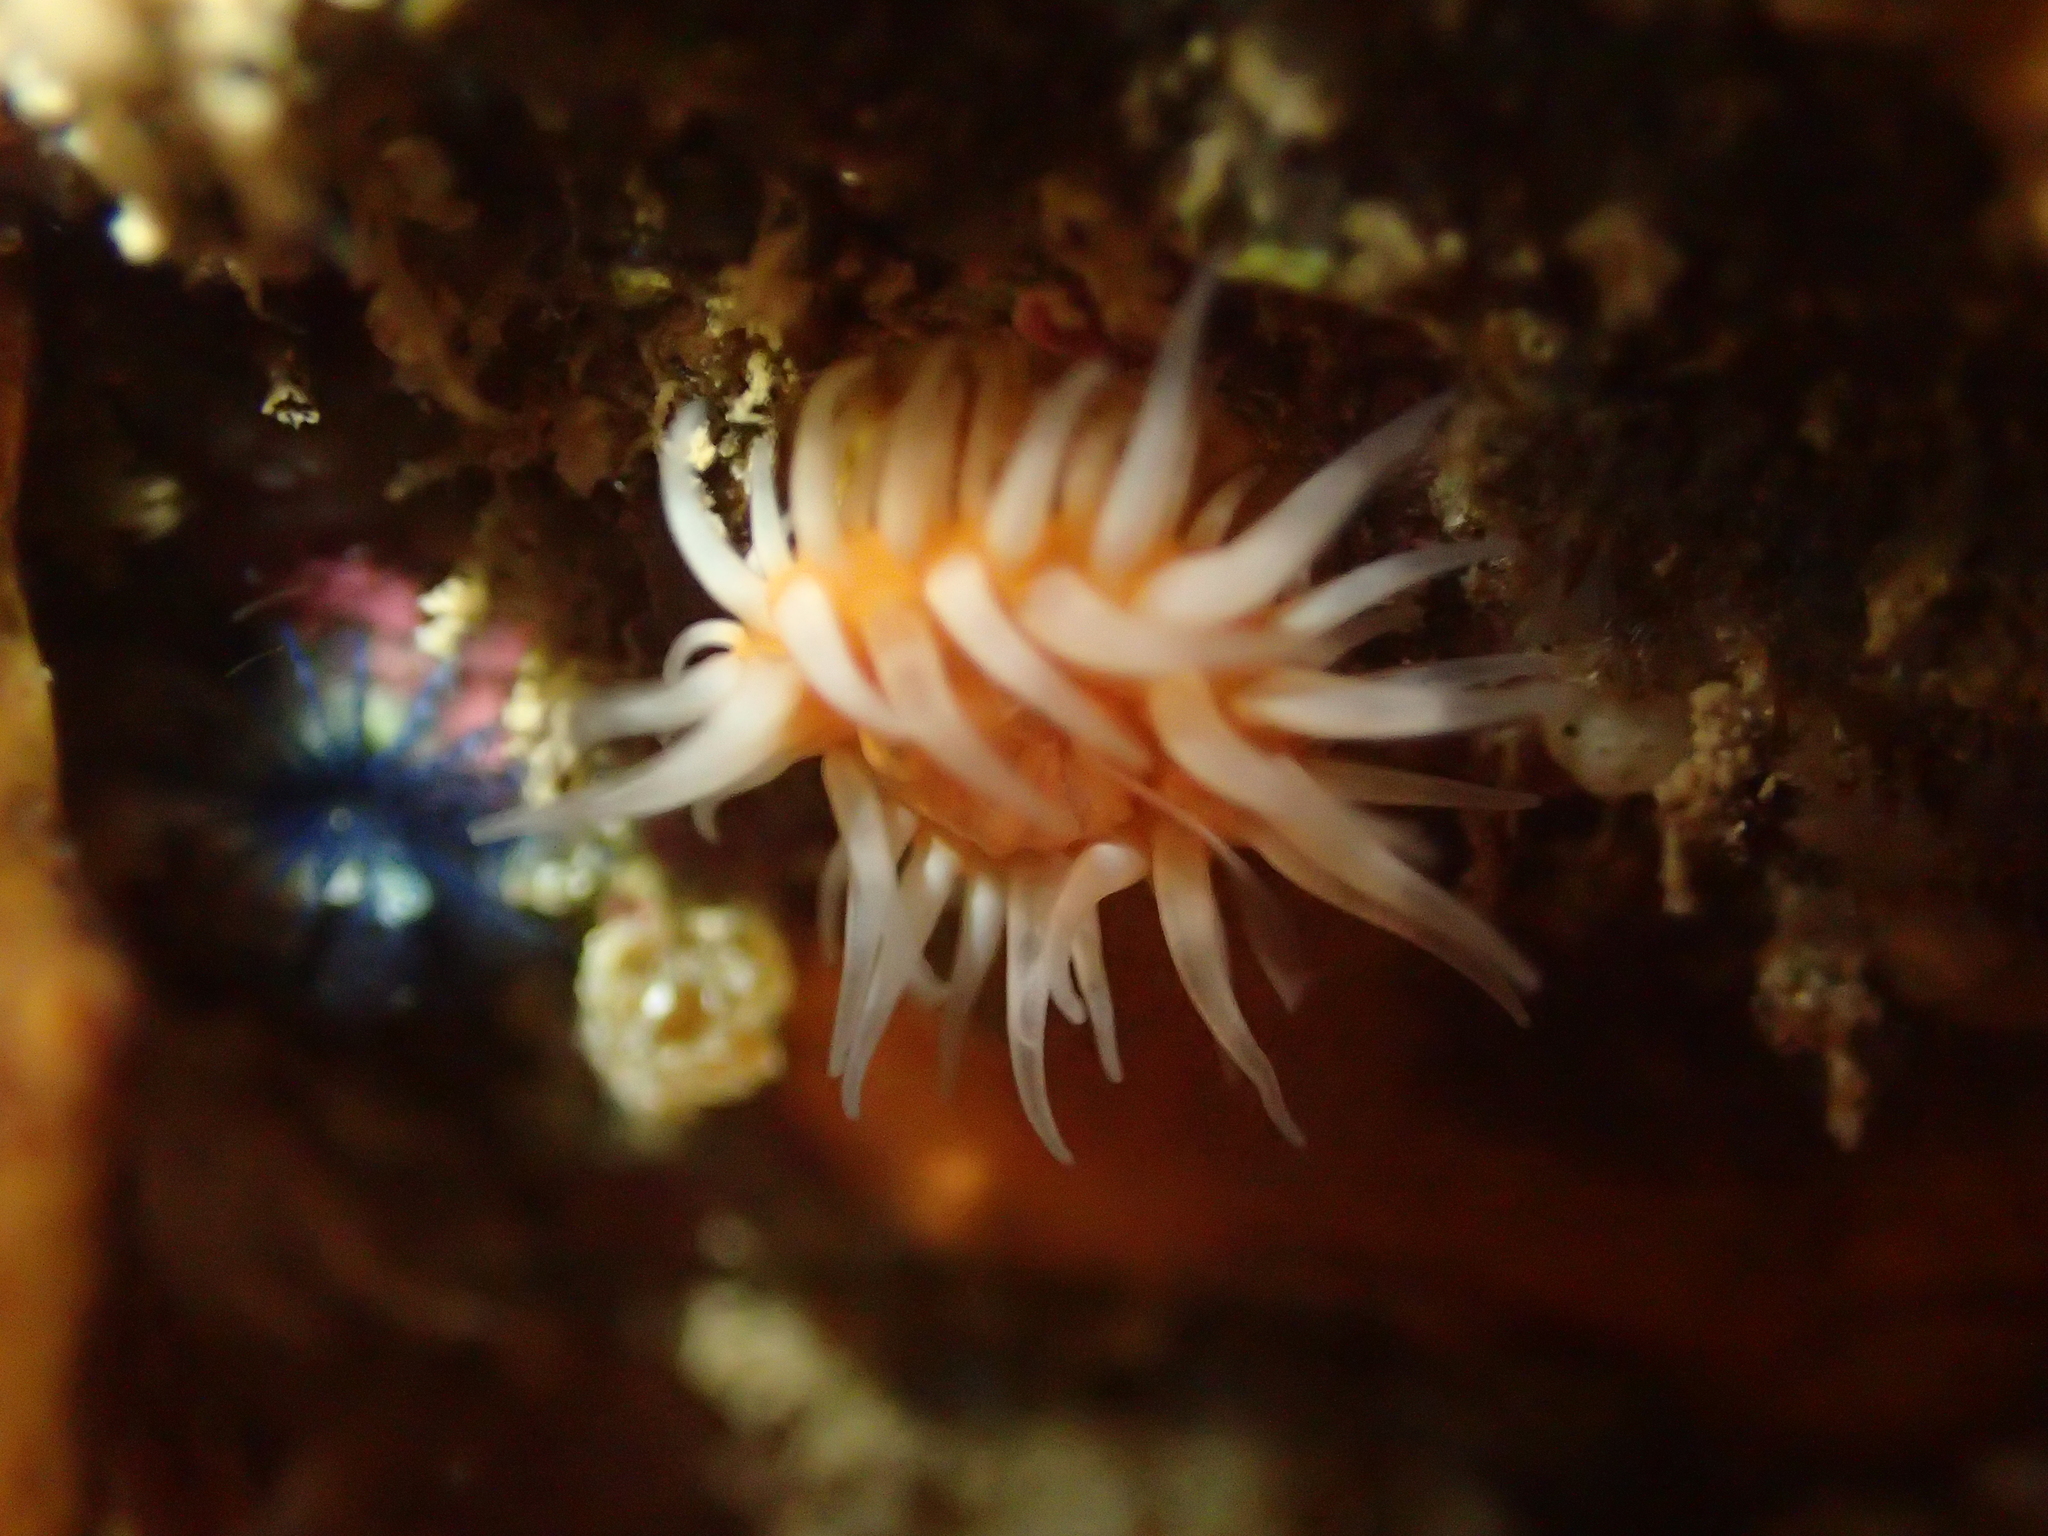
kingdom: Animalia
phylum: Cnidaria
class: Anthozoa
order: Actiniaria
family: Sagartiidae
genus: Anthothoe
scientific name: Anthothoe albocincta
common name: Orange striped anemone
